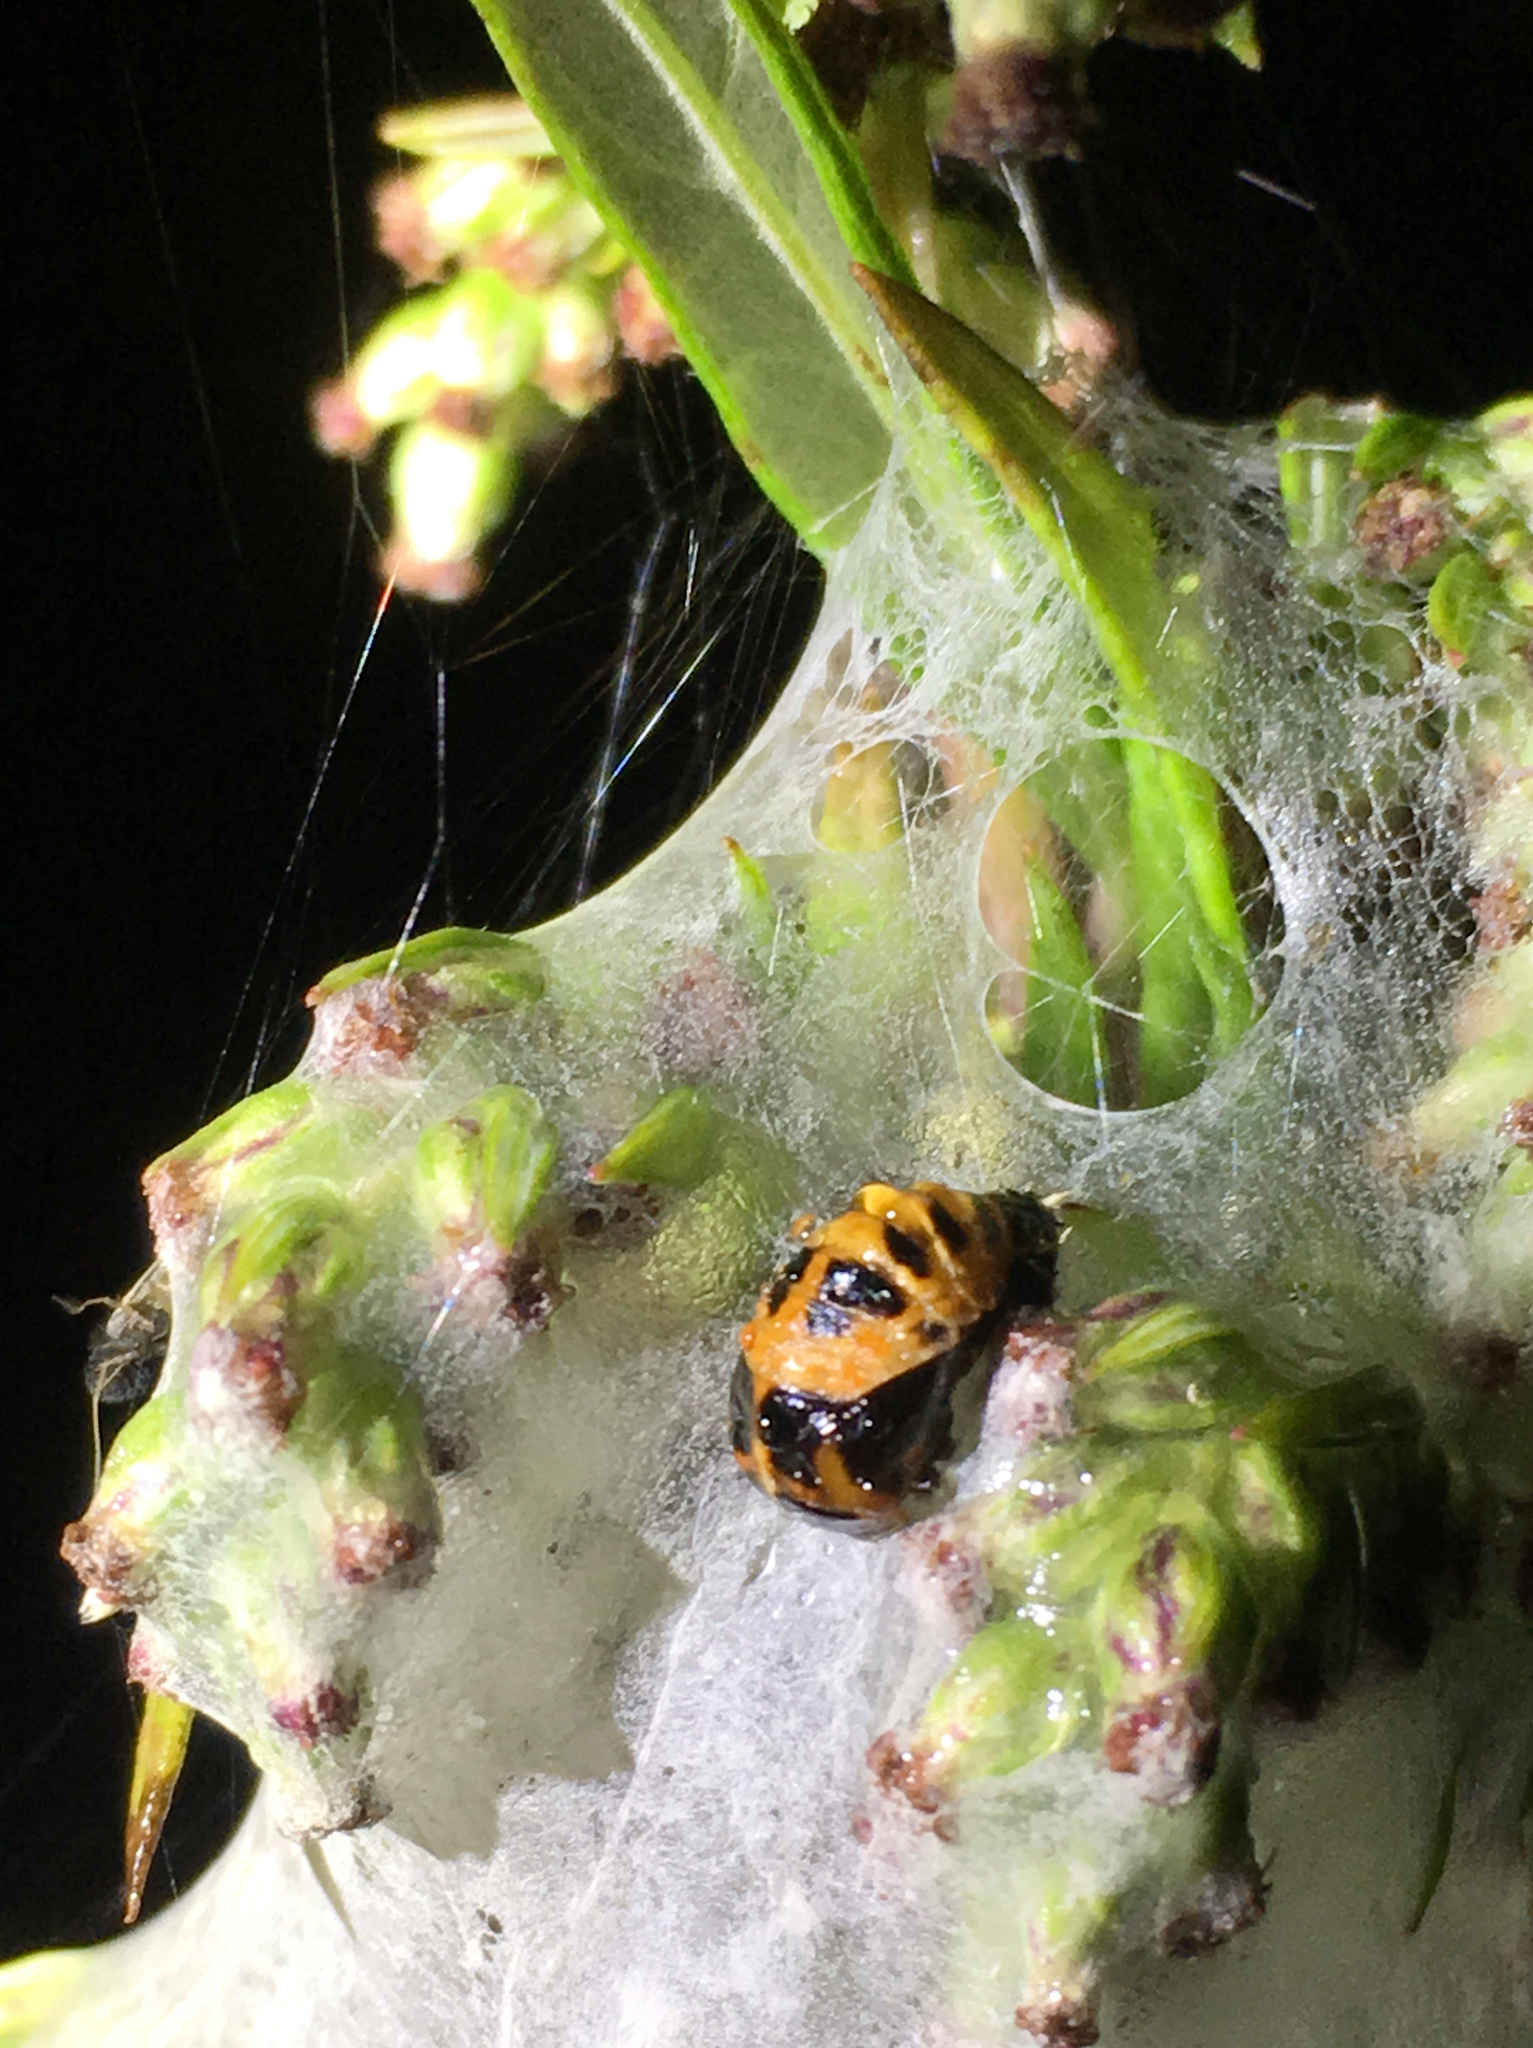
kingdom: Animalia
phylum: Arthropoda
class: Insecta
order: Coleoptera
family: Coccinellidae
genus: Harmonia
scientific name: Harmonia axyridis
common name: Harlequin ladybird
